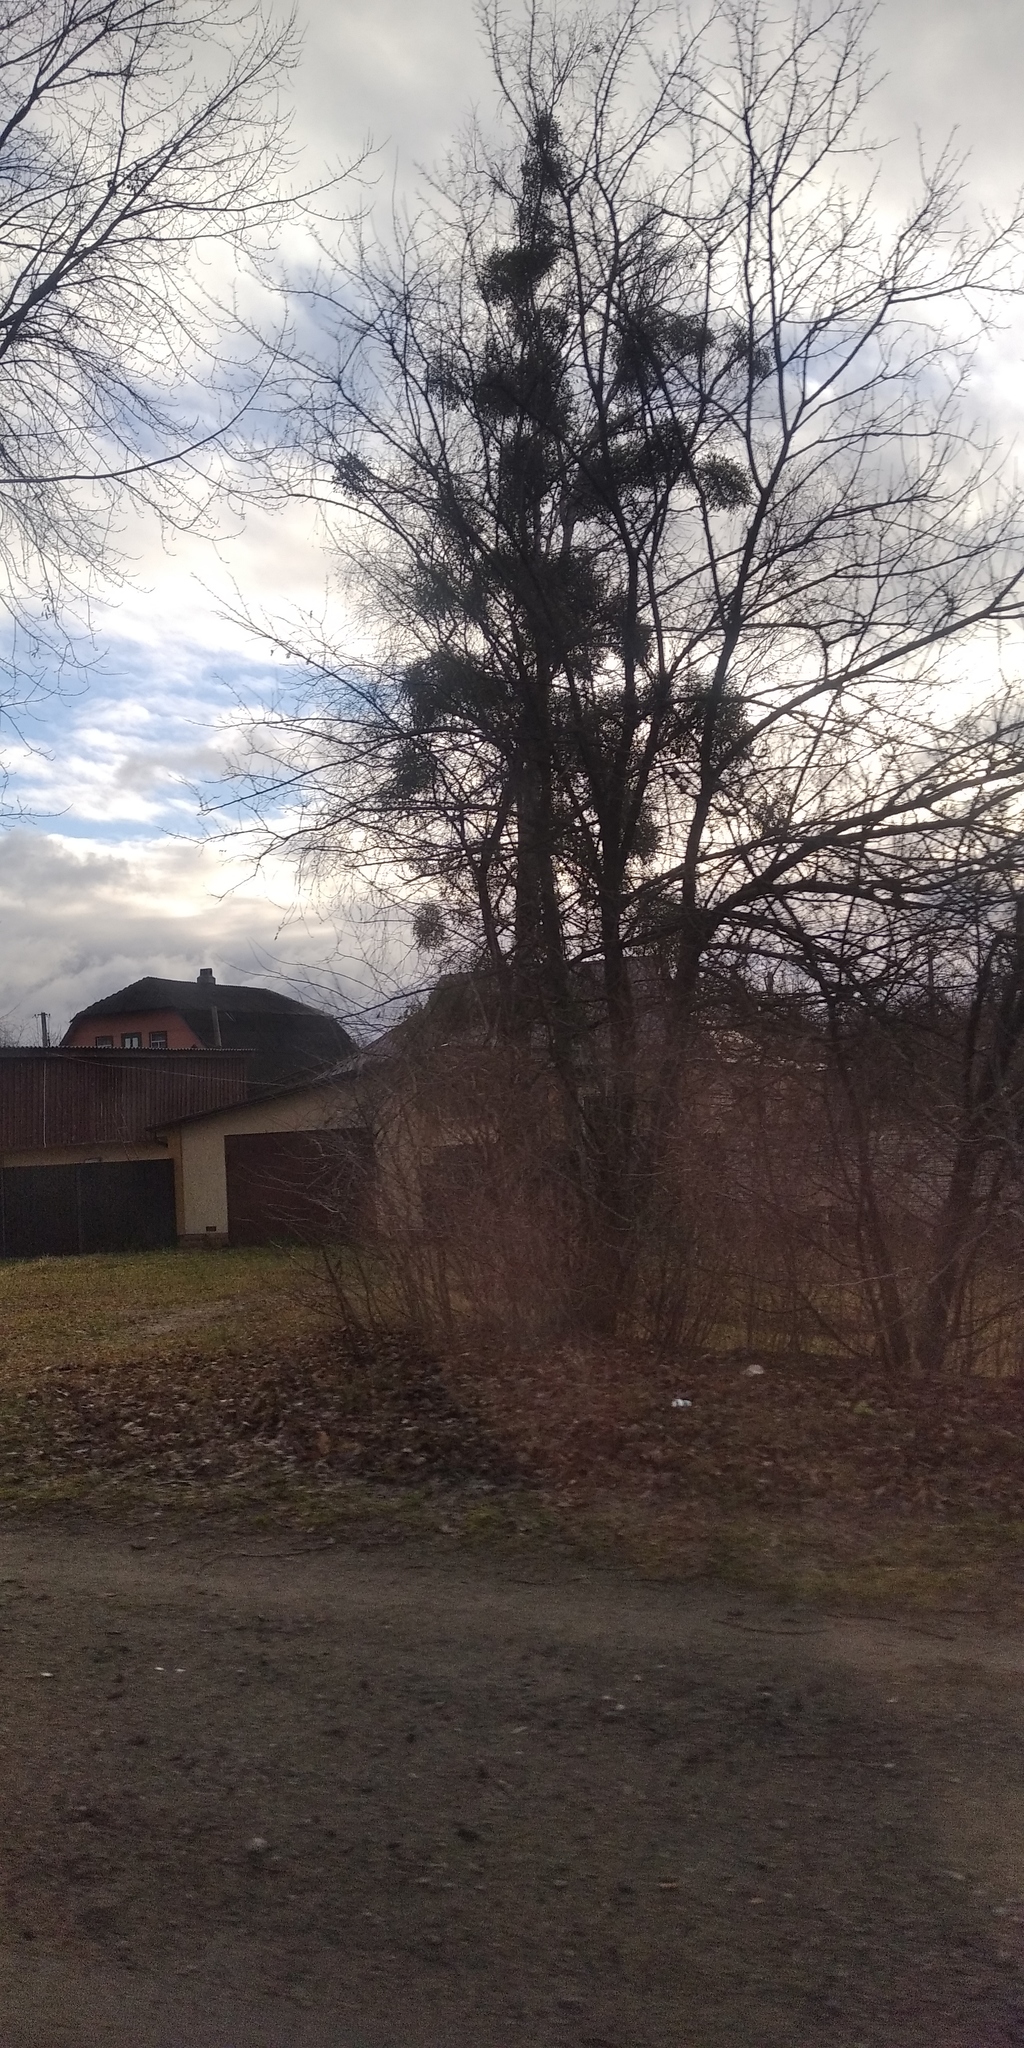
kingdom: Plantae
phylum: Tracheophyta
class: Magnoliopsida
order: Santalales
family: Viscaceae
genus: Viscum
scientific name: Viscum album
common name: Mistletoe
